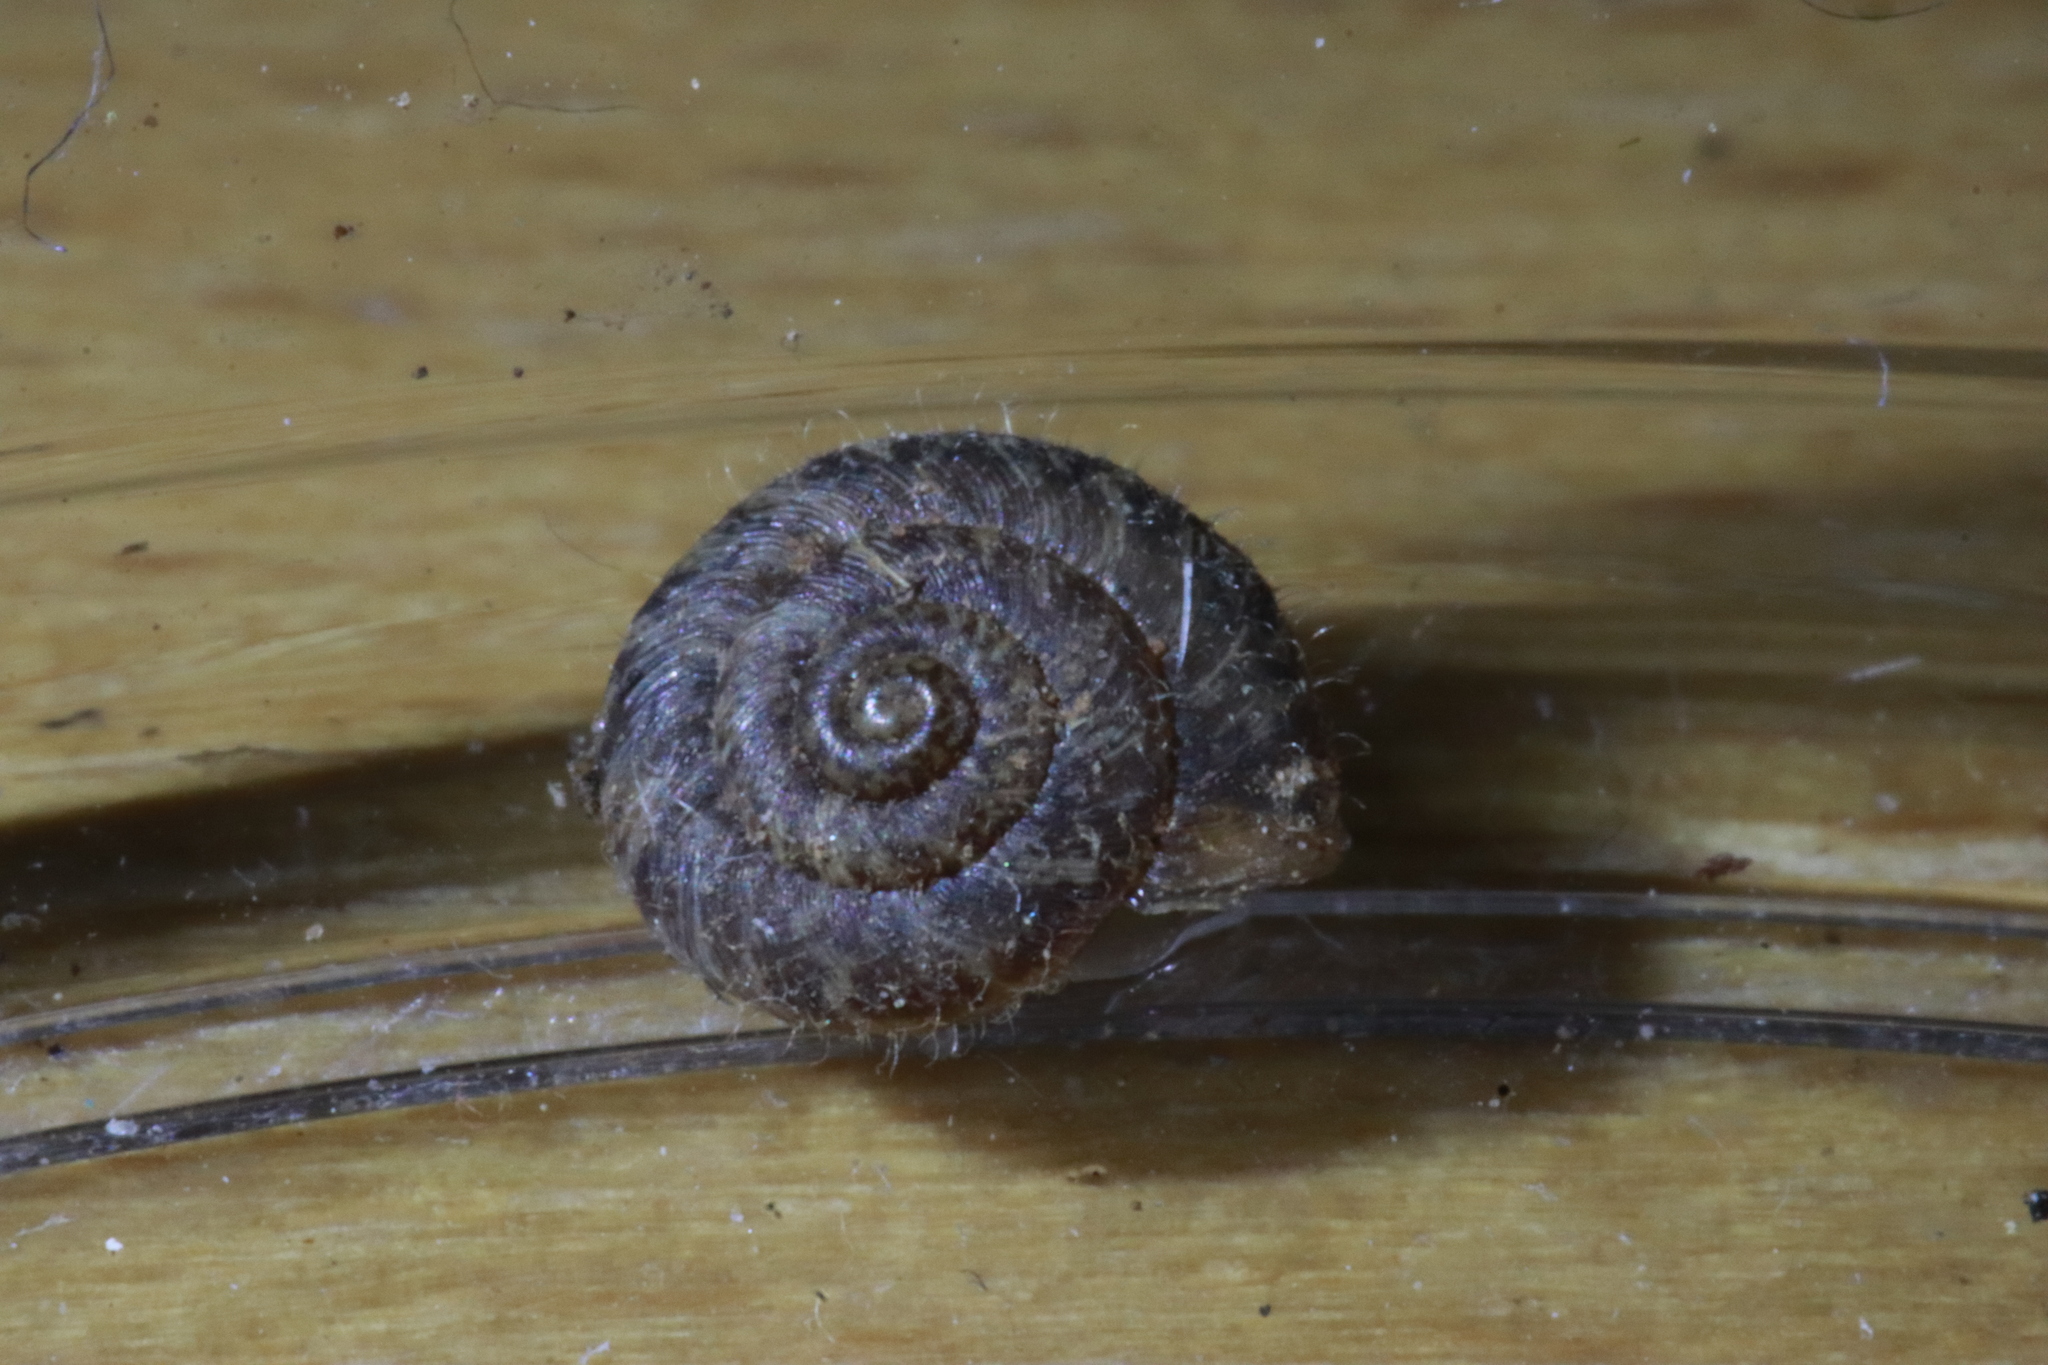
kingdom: Animalia
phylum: Mollusca
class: Gastropoda
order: Stylommatophora
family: Geomitridae
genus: Xerotricha
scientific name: Xerotricha conspurcata
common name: Snail
